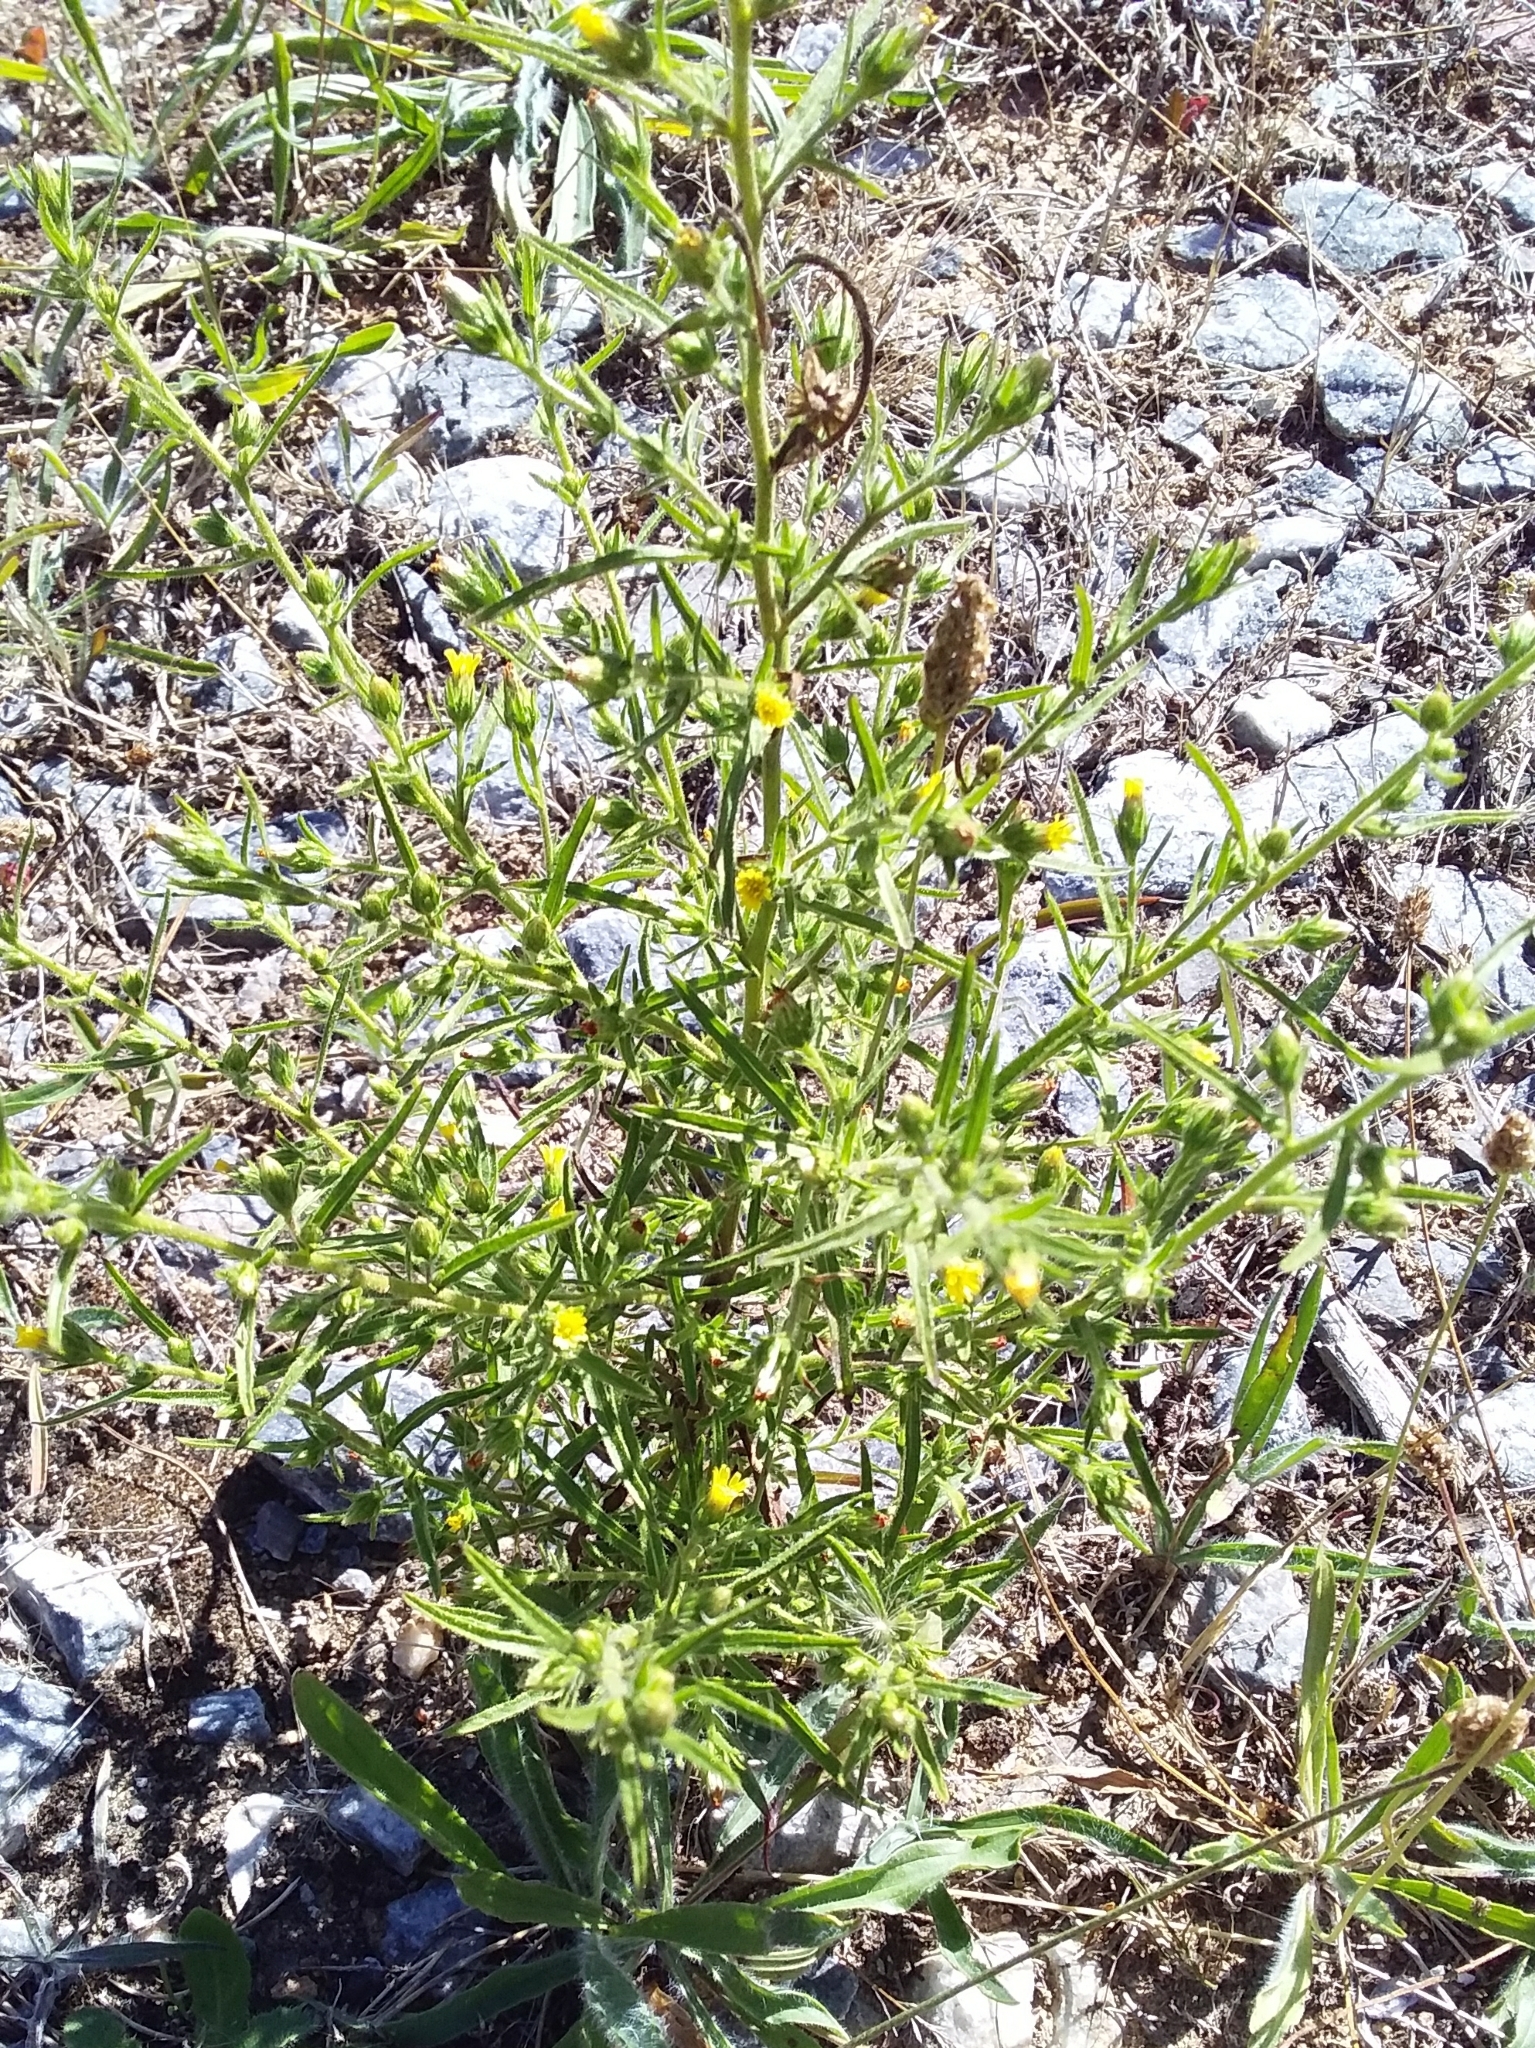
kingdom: Plantae
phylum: Tracheophyta
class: Magnoliopsida
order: Asterales
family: Asteraceae
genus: Dittrichia
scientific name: Dittrichia graveolens
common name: Stinking fleabane
